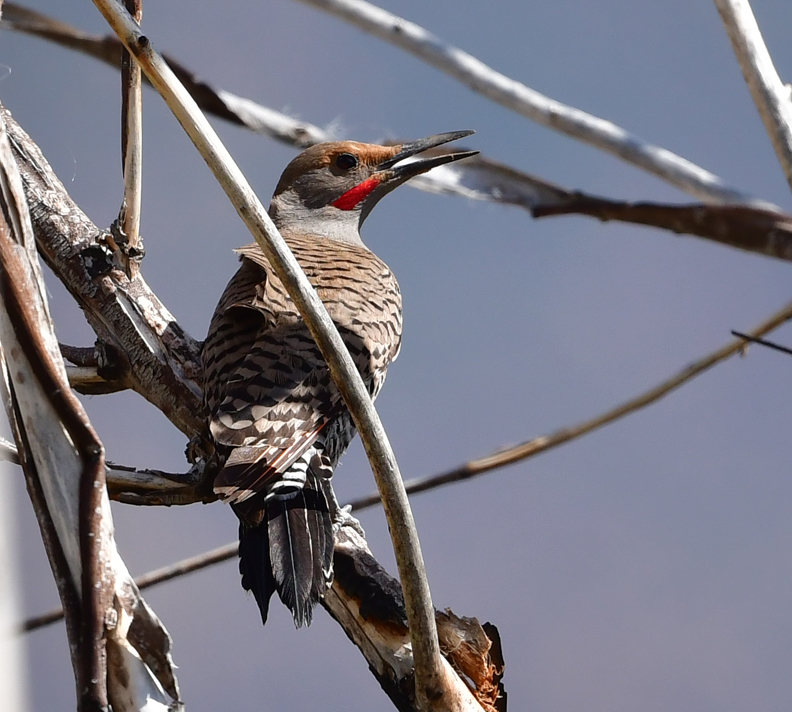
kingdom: Animalia
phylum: Chordata
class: Aves
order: Piciformes
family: Picidae
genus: Colaptes
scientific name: Colaptes auratus
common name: Northern flicker
